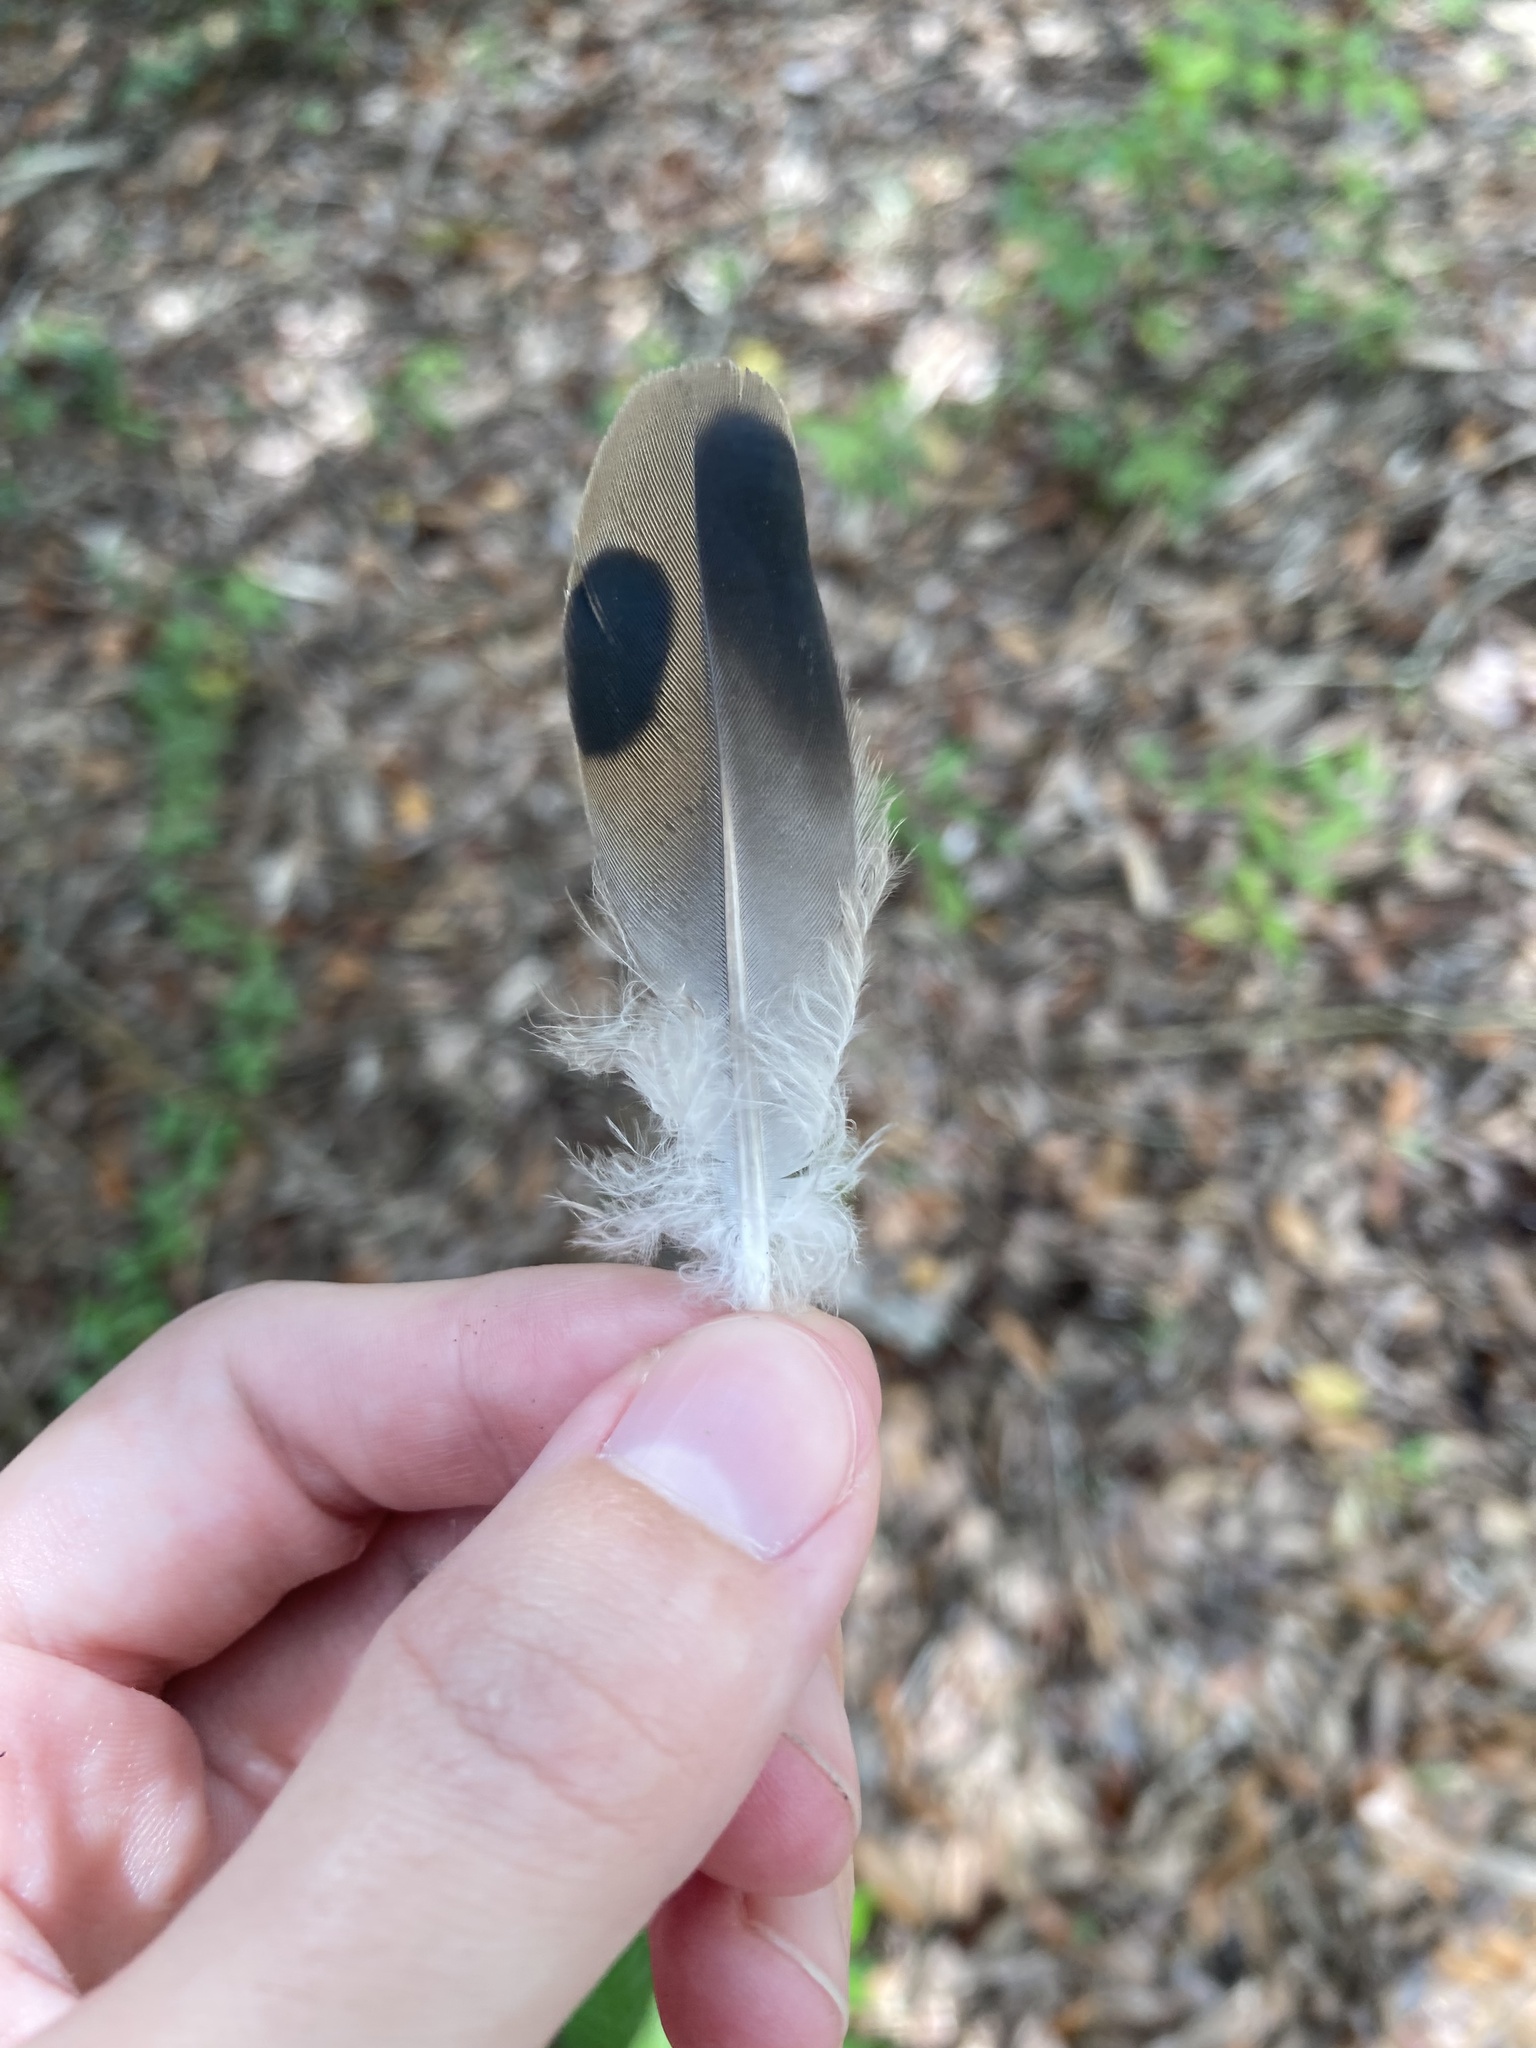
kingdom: Animalia
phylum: Chordata
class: Aves
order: Columbiformes
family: Columbidae
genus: Zenaida
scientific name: Zenaida macroura
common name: Mourning dove
